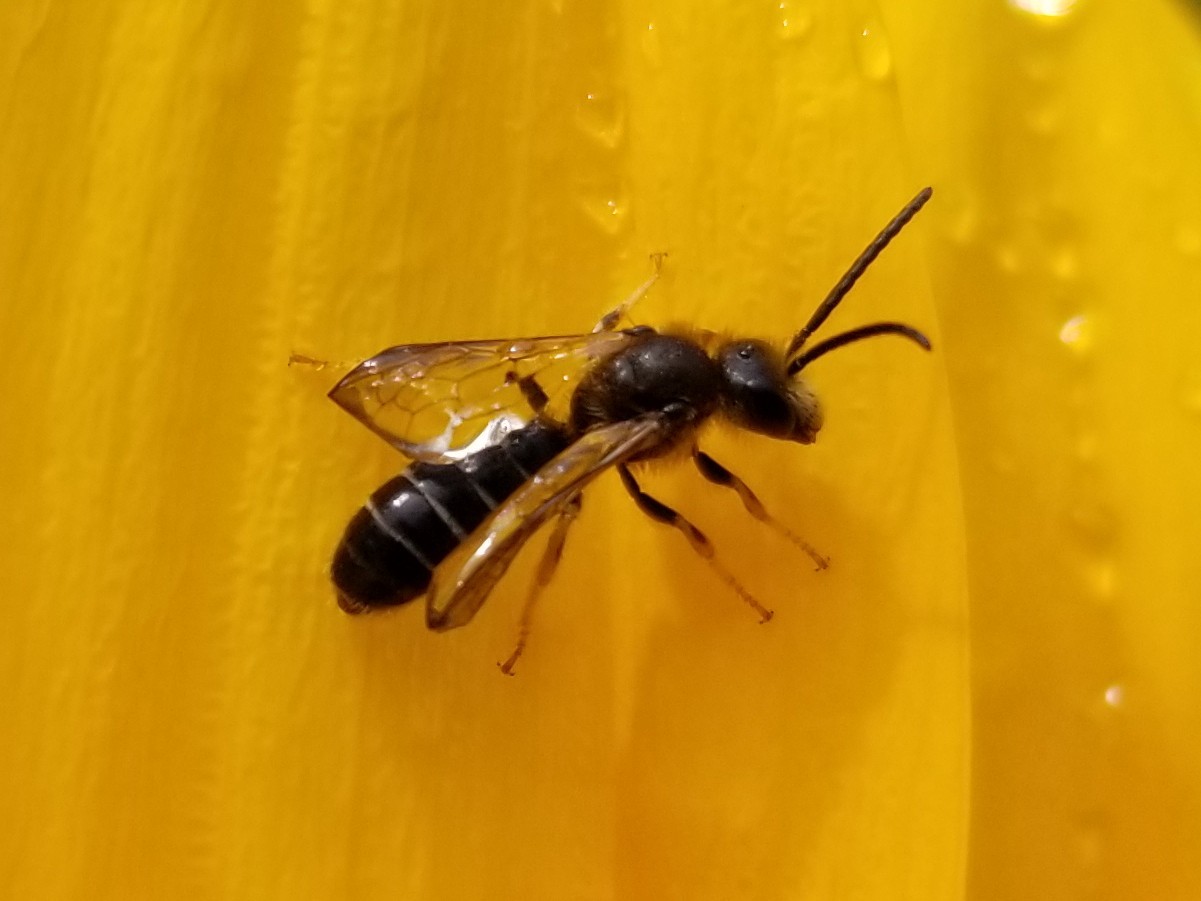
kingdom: Animalia
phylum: Arthropoda
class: Insecta
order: Hymenoptera
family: Halictidae
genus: Halictus
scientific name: Halictus rubicundus
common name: Orange-legged furrow bee
